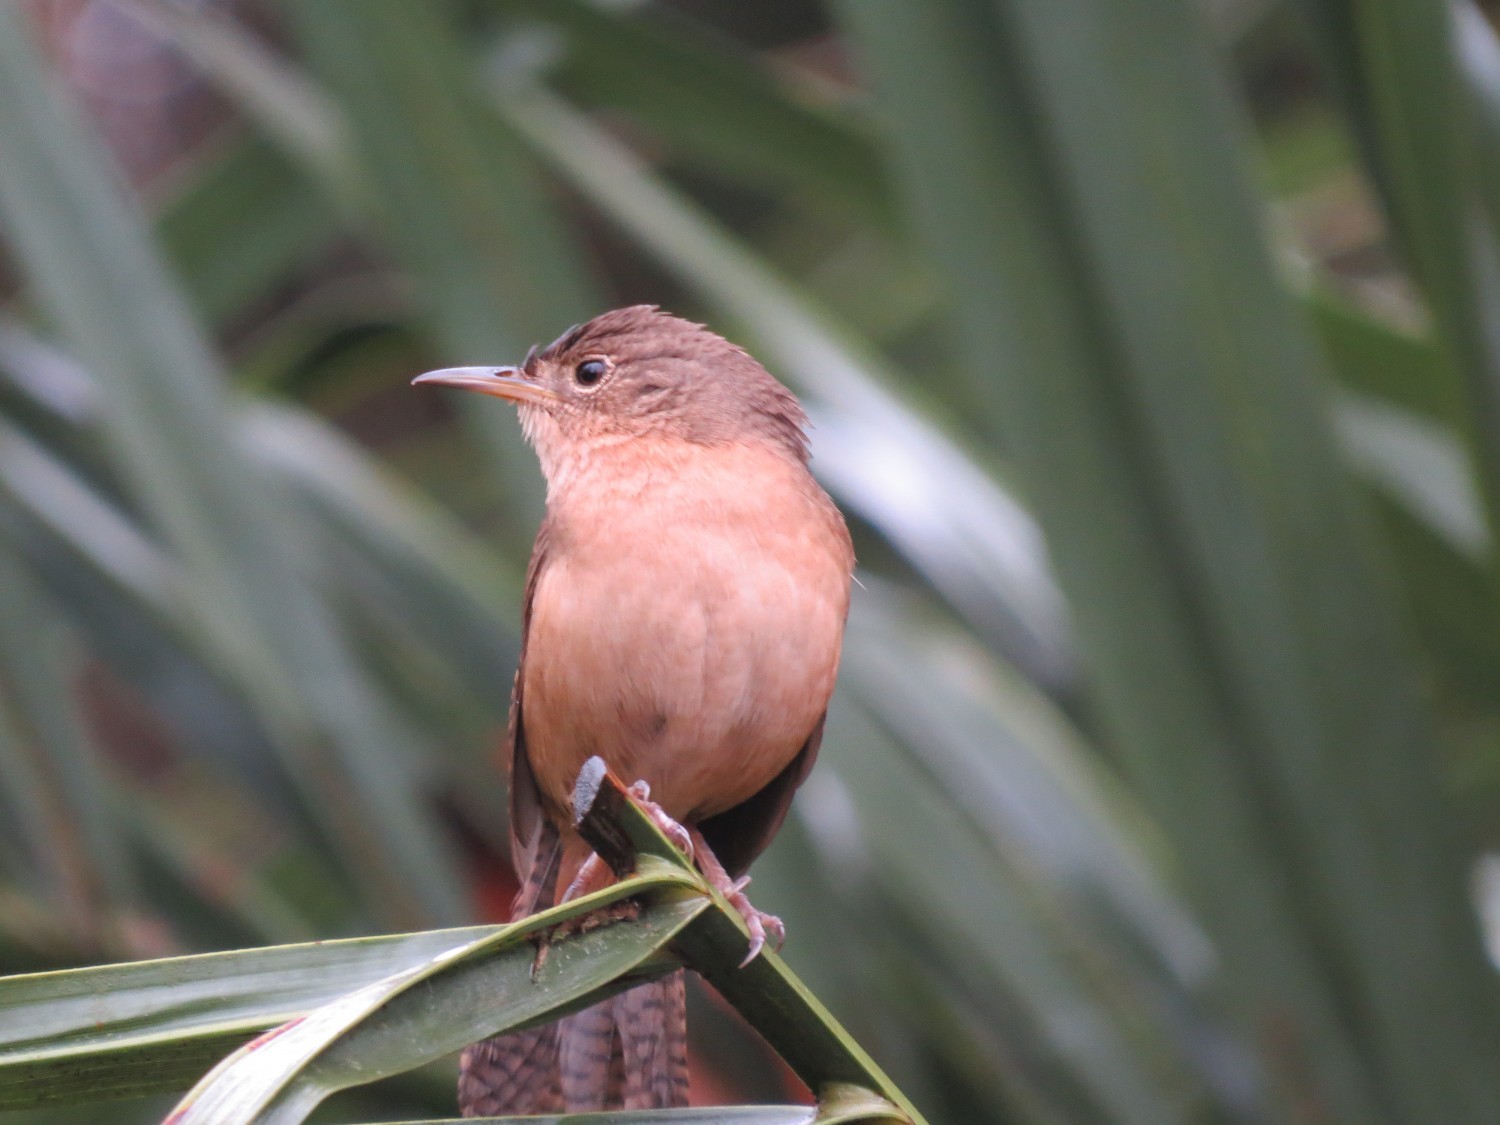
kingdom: Animalia
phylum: Chordata
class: Aves
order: Passeriformes
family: Troglodytidae
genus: Troglodytes
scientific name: Troglodytes aedon
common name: House wren
